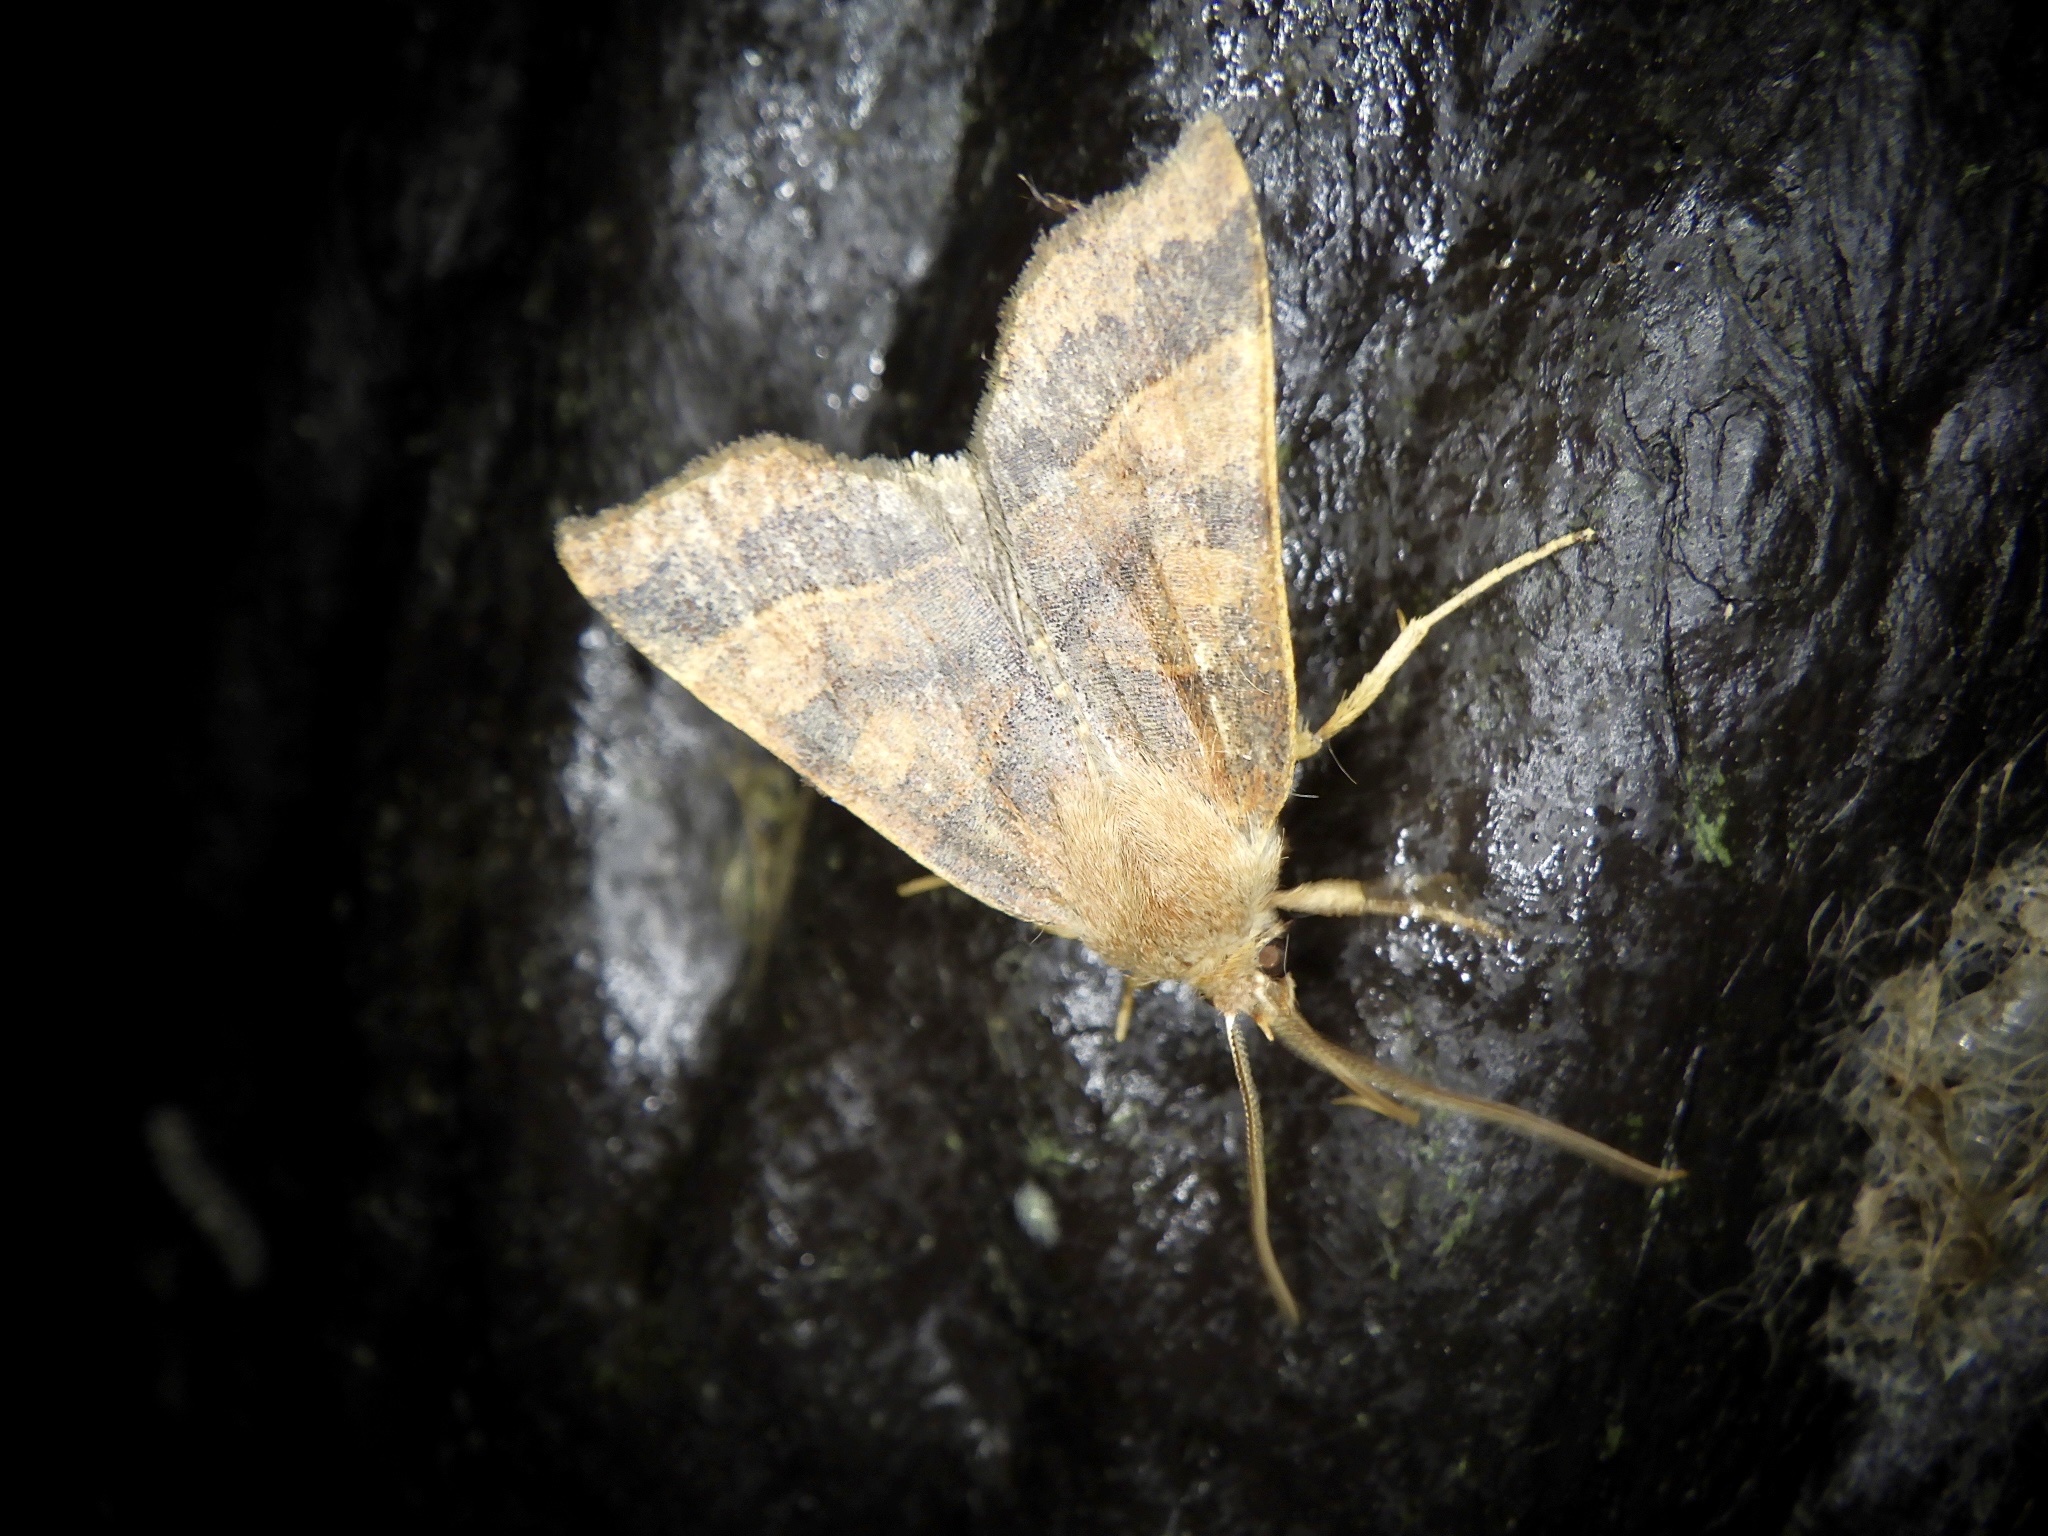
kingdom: Animalia
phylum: Arthropoda
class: Insecta
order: Lepidoptera
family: Noctuidae
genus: Telorta
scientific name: Telorta edentata
